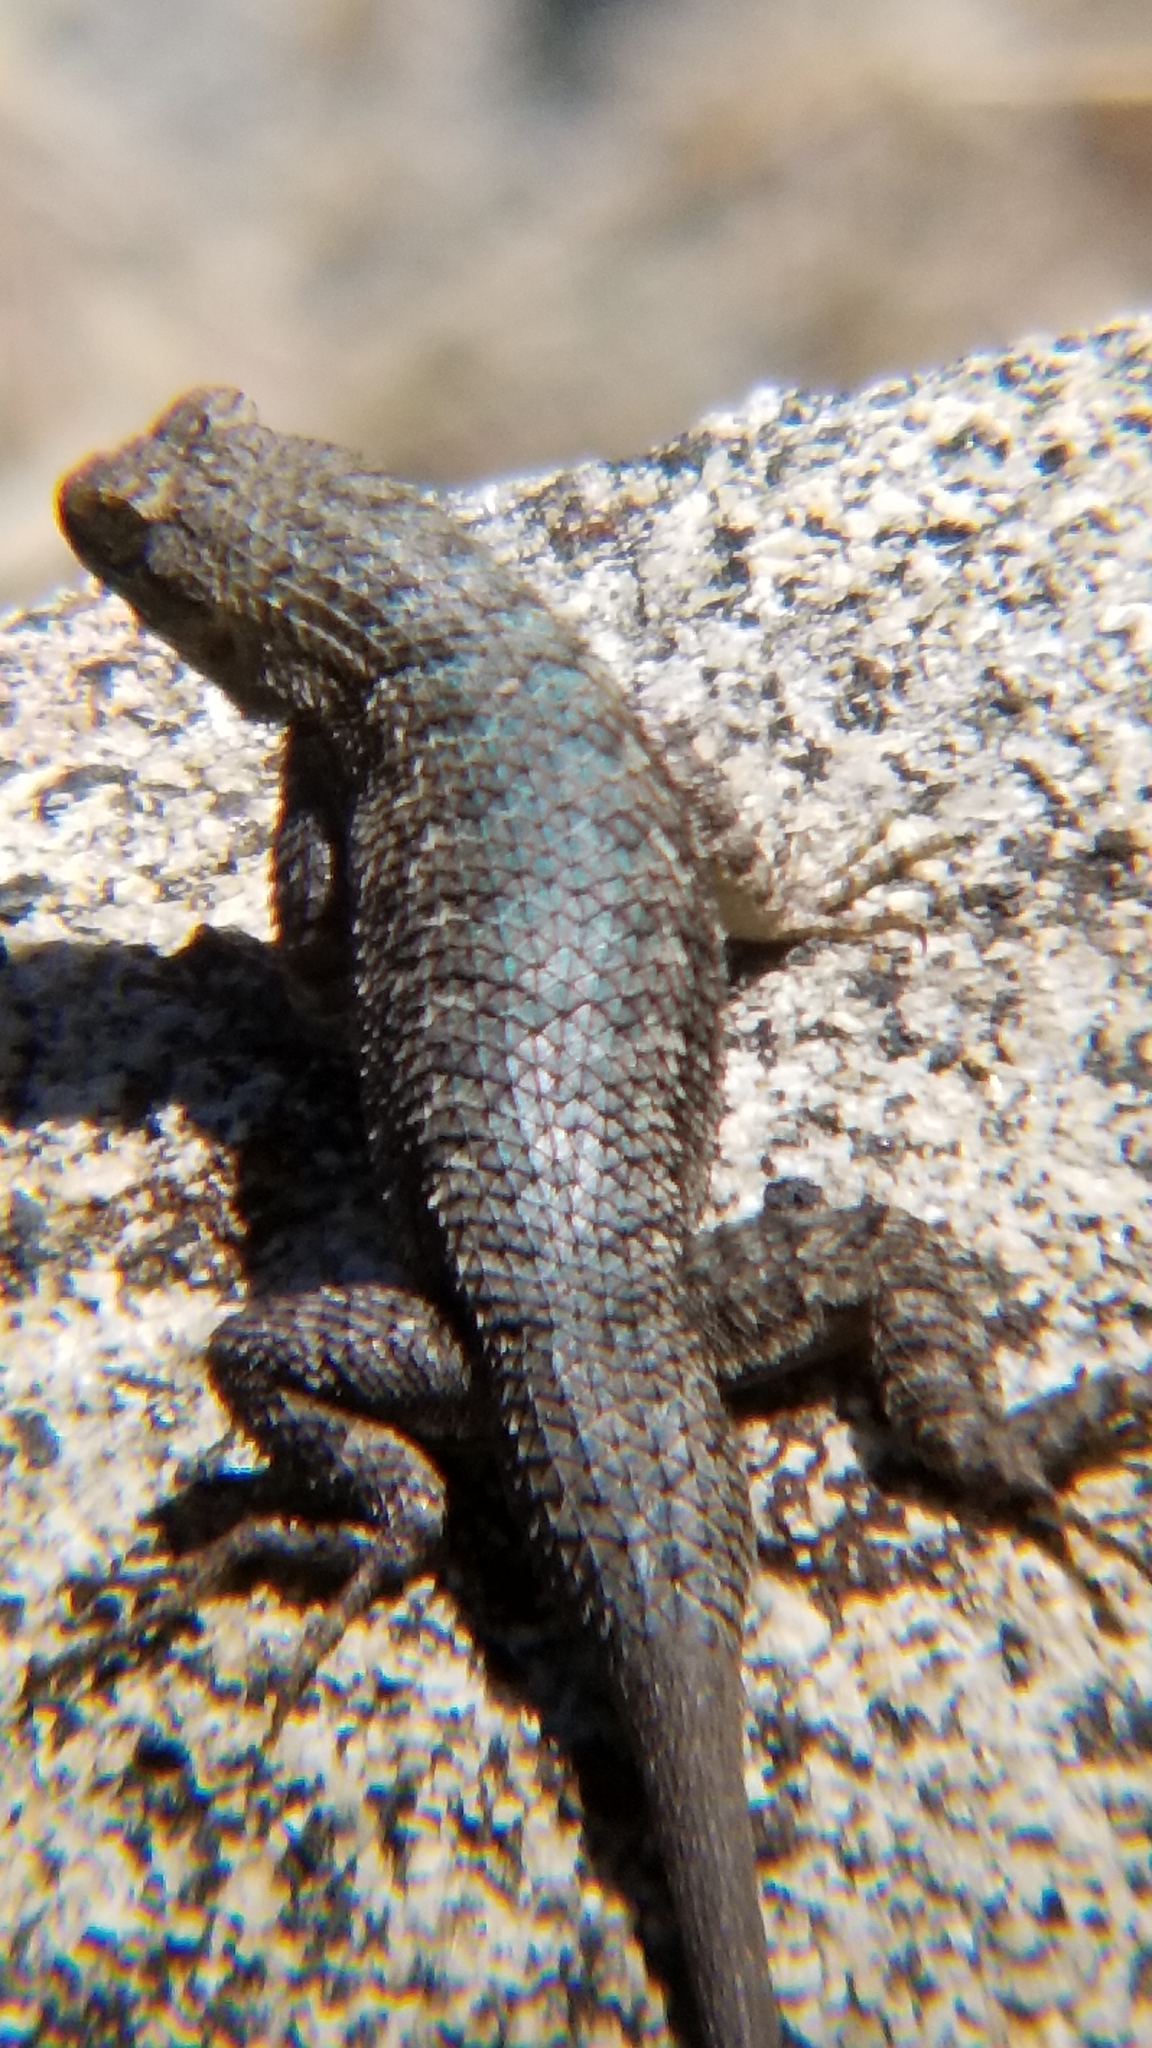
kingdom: Animalia
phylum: Chordata
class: Squamata
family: Phrynosomatidae
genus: Sceloporus
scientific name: Sceloporus occidentalis
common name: Western fence lizard
